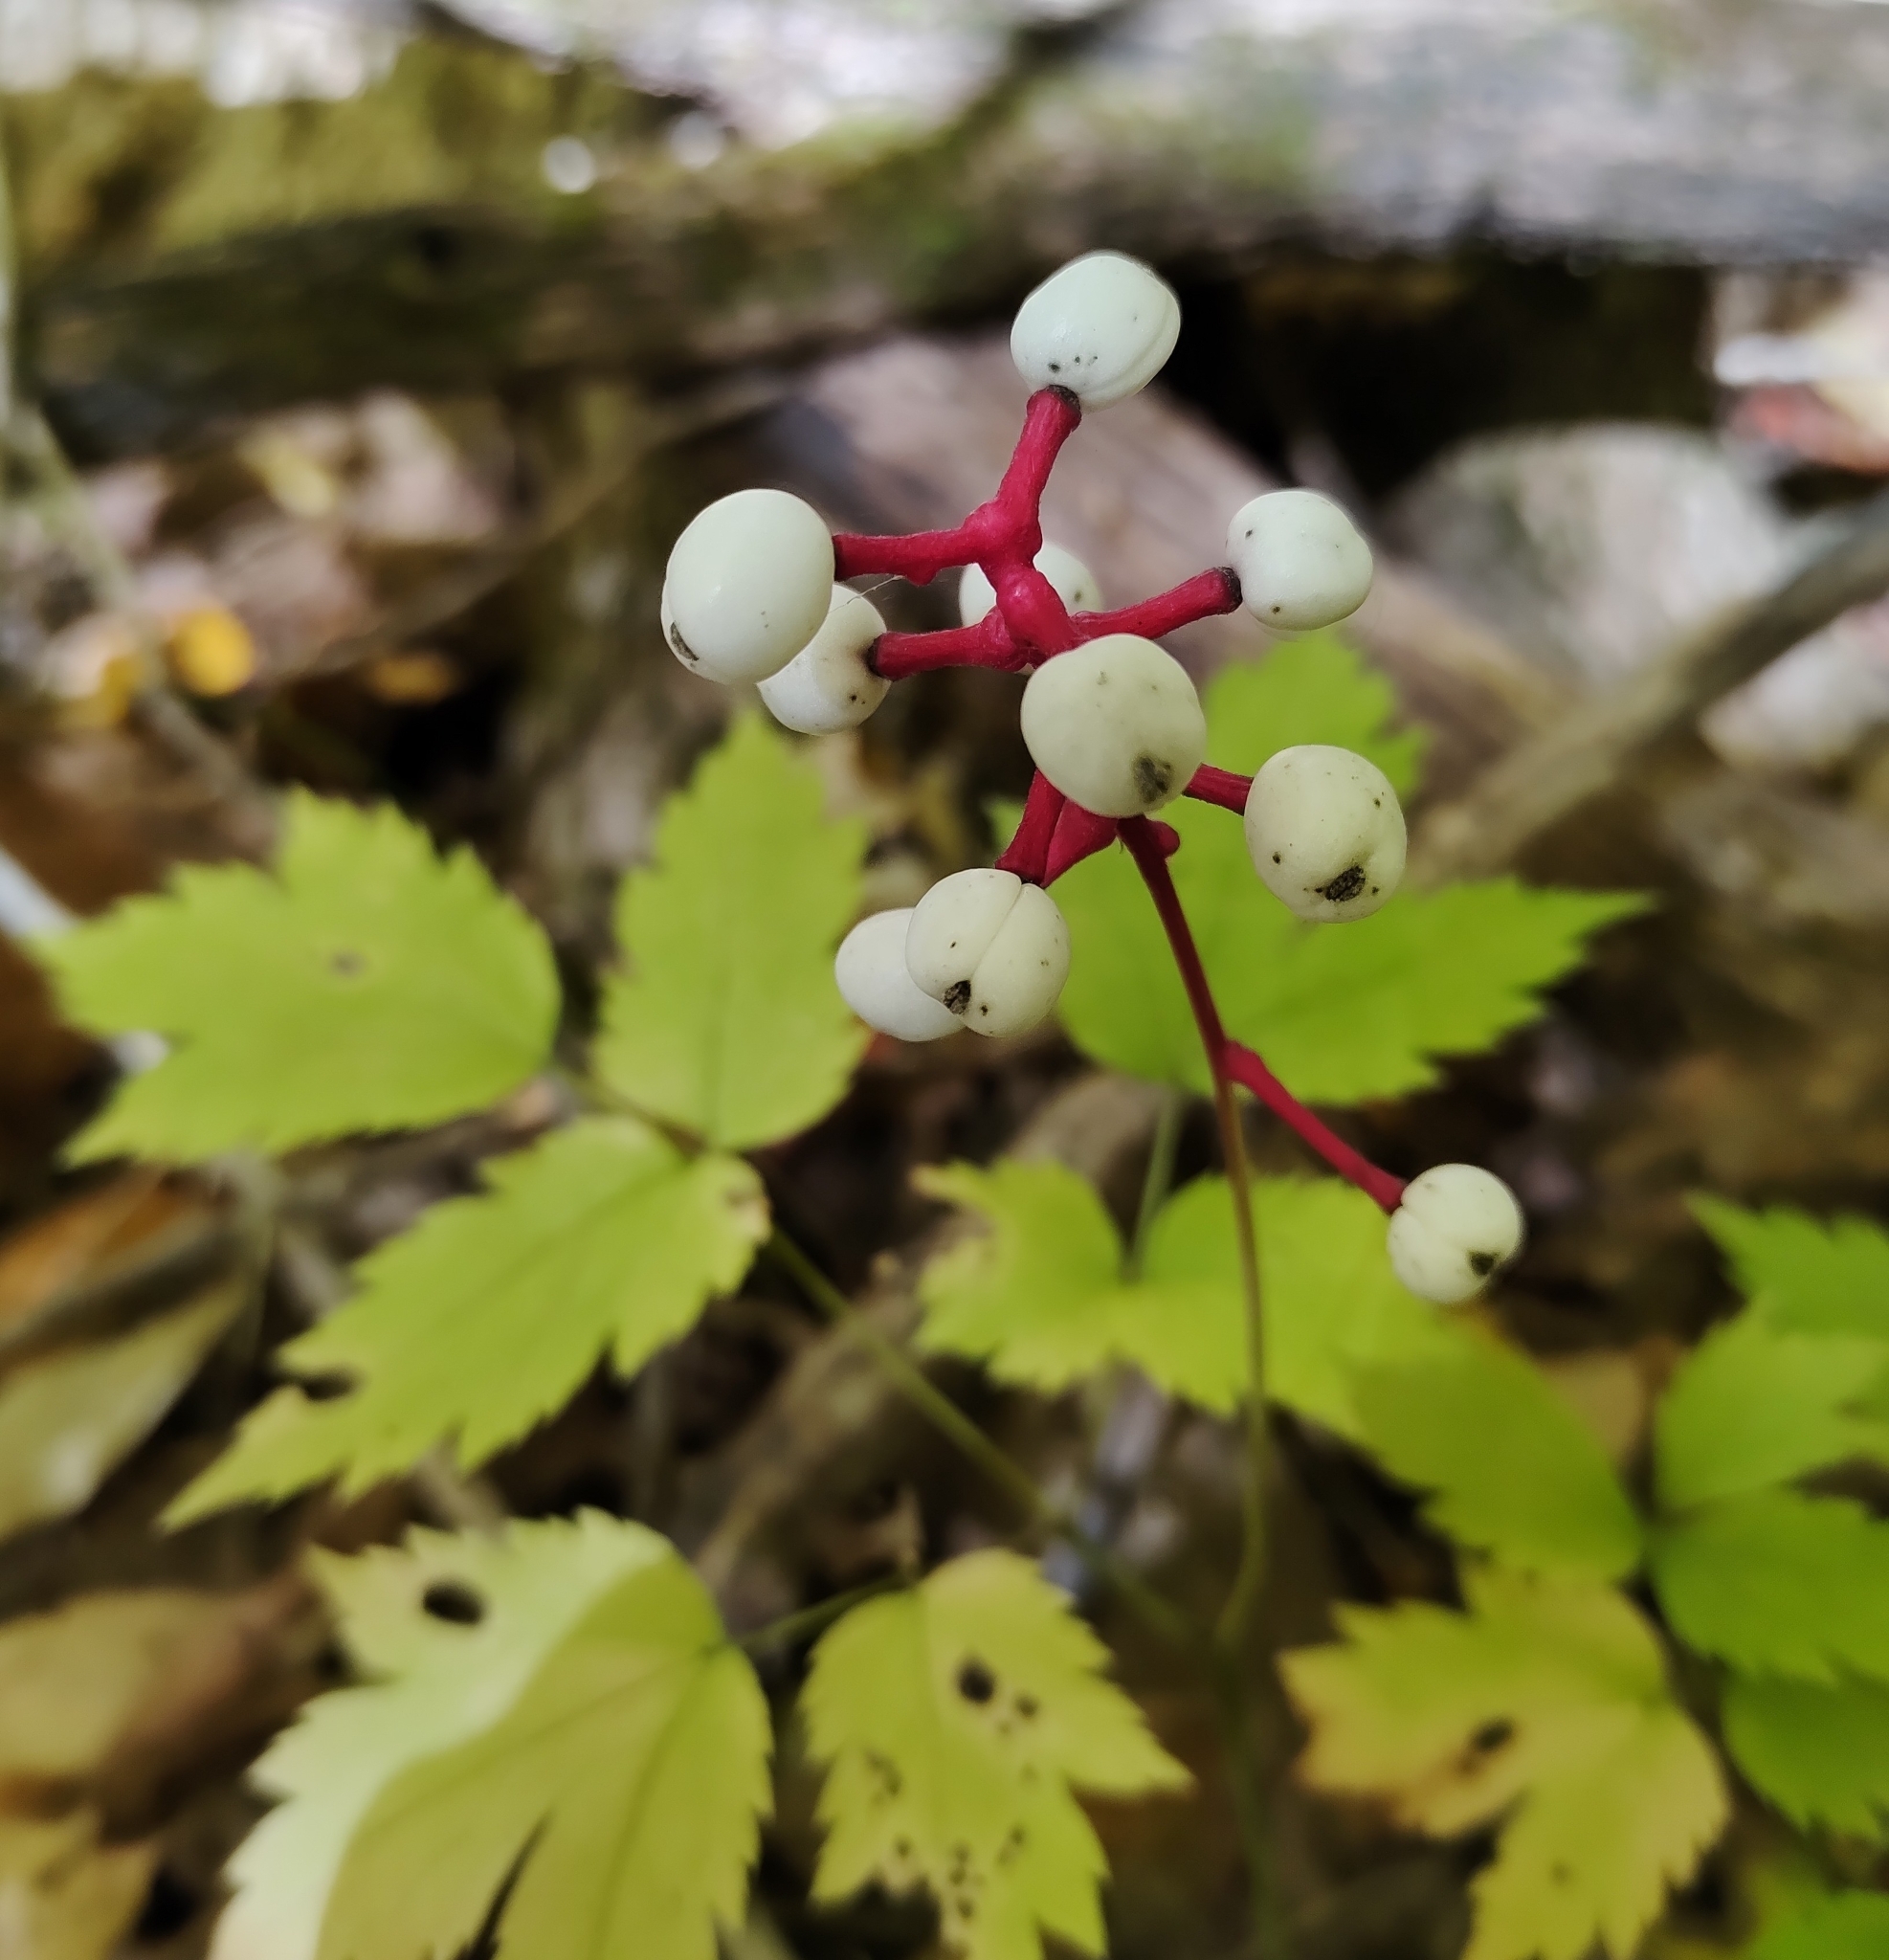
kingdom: Plantae
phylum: Tracheophyta
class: Magnoliopsida
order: Ranunculales
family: Ranunculaceae
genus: Actaea
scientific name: Actaea pachypoda
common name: Doll's-eyes
